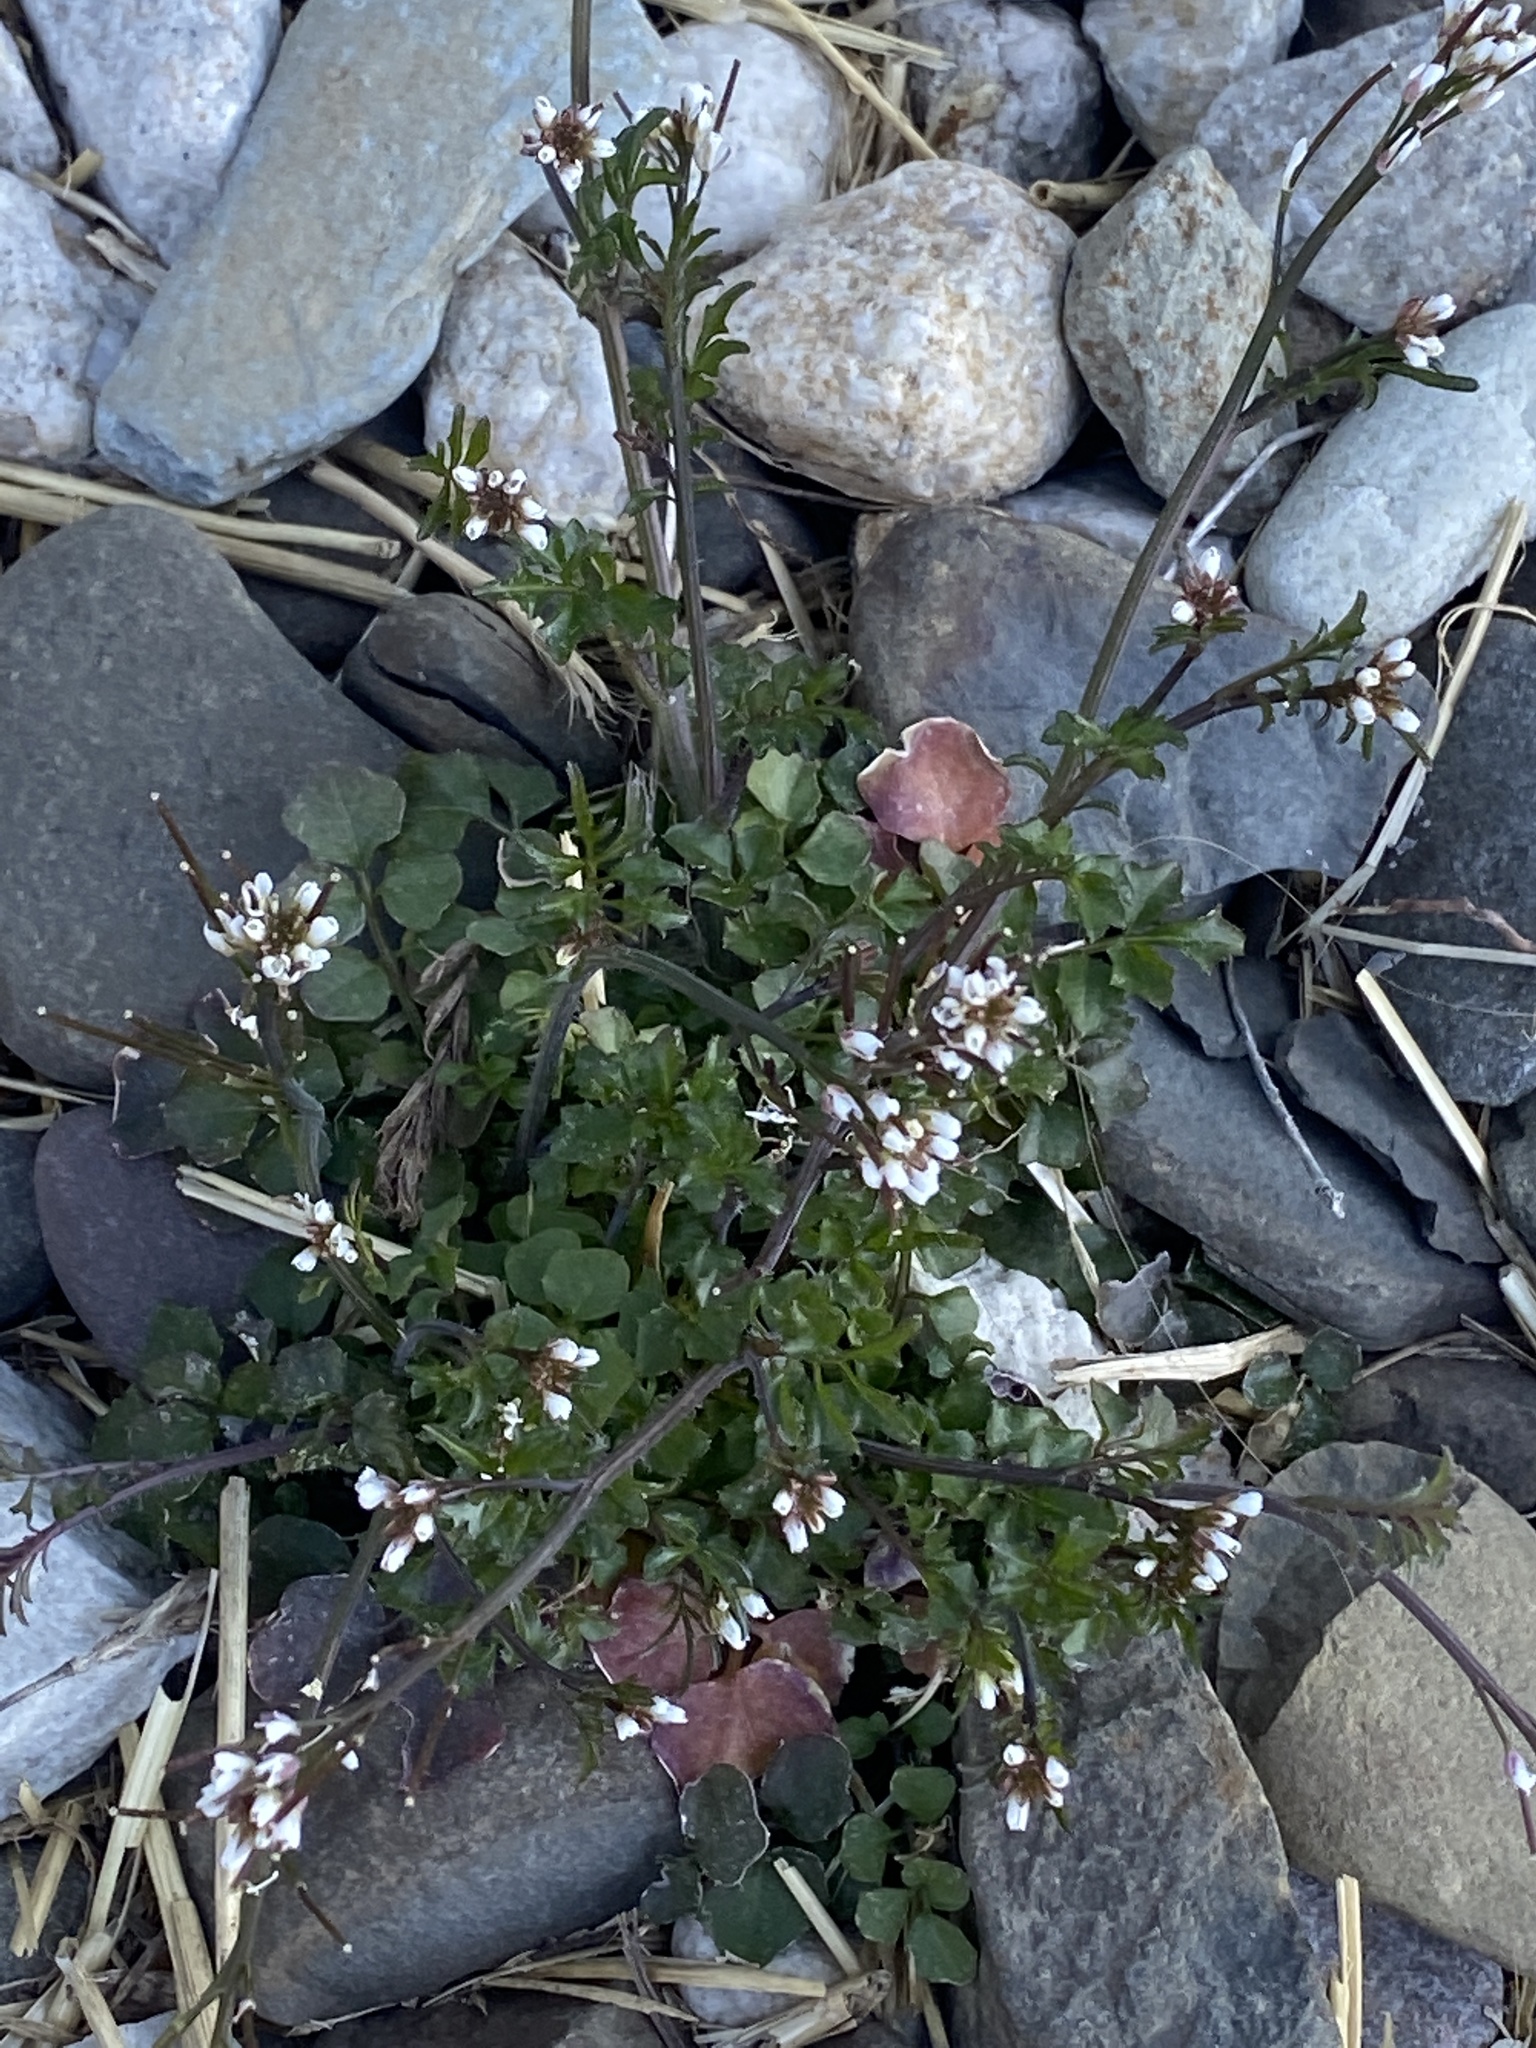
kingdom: Plantae
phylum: Tracheophyta
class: Magnoliopsida
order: Brassicales
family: Brassicaceae
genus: Cardamine
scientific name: Cardamine hirsuta
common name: Hairy bittercress
